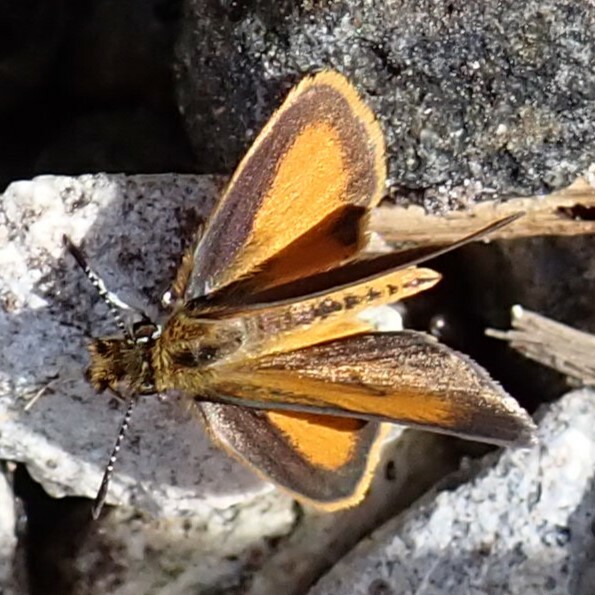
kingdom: Animalia
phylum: Arthropoda
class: Insecta
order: Lepidoptera
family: Hesperiidae
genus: Ancyloxypha
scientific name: Ancyloxypha numitor
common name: Least skipper
